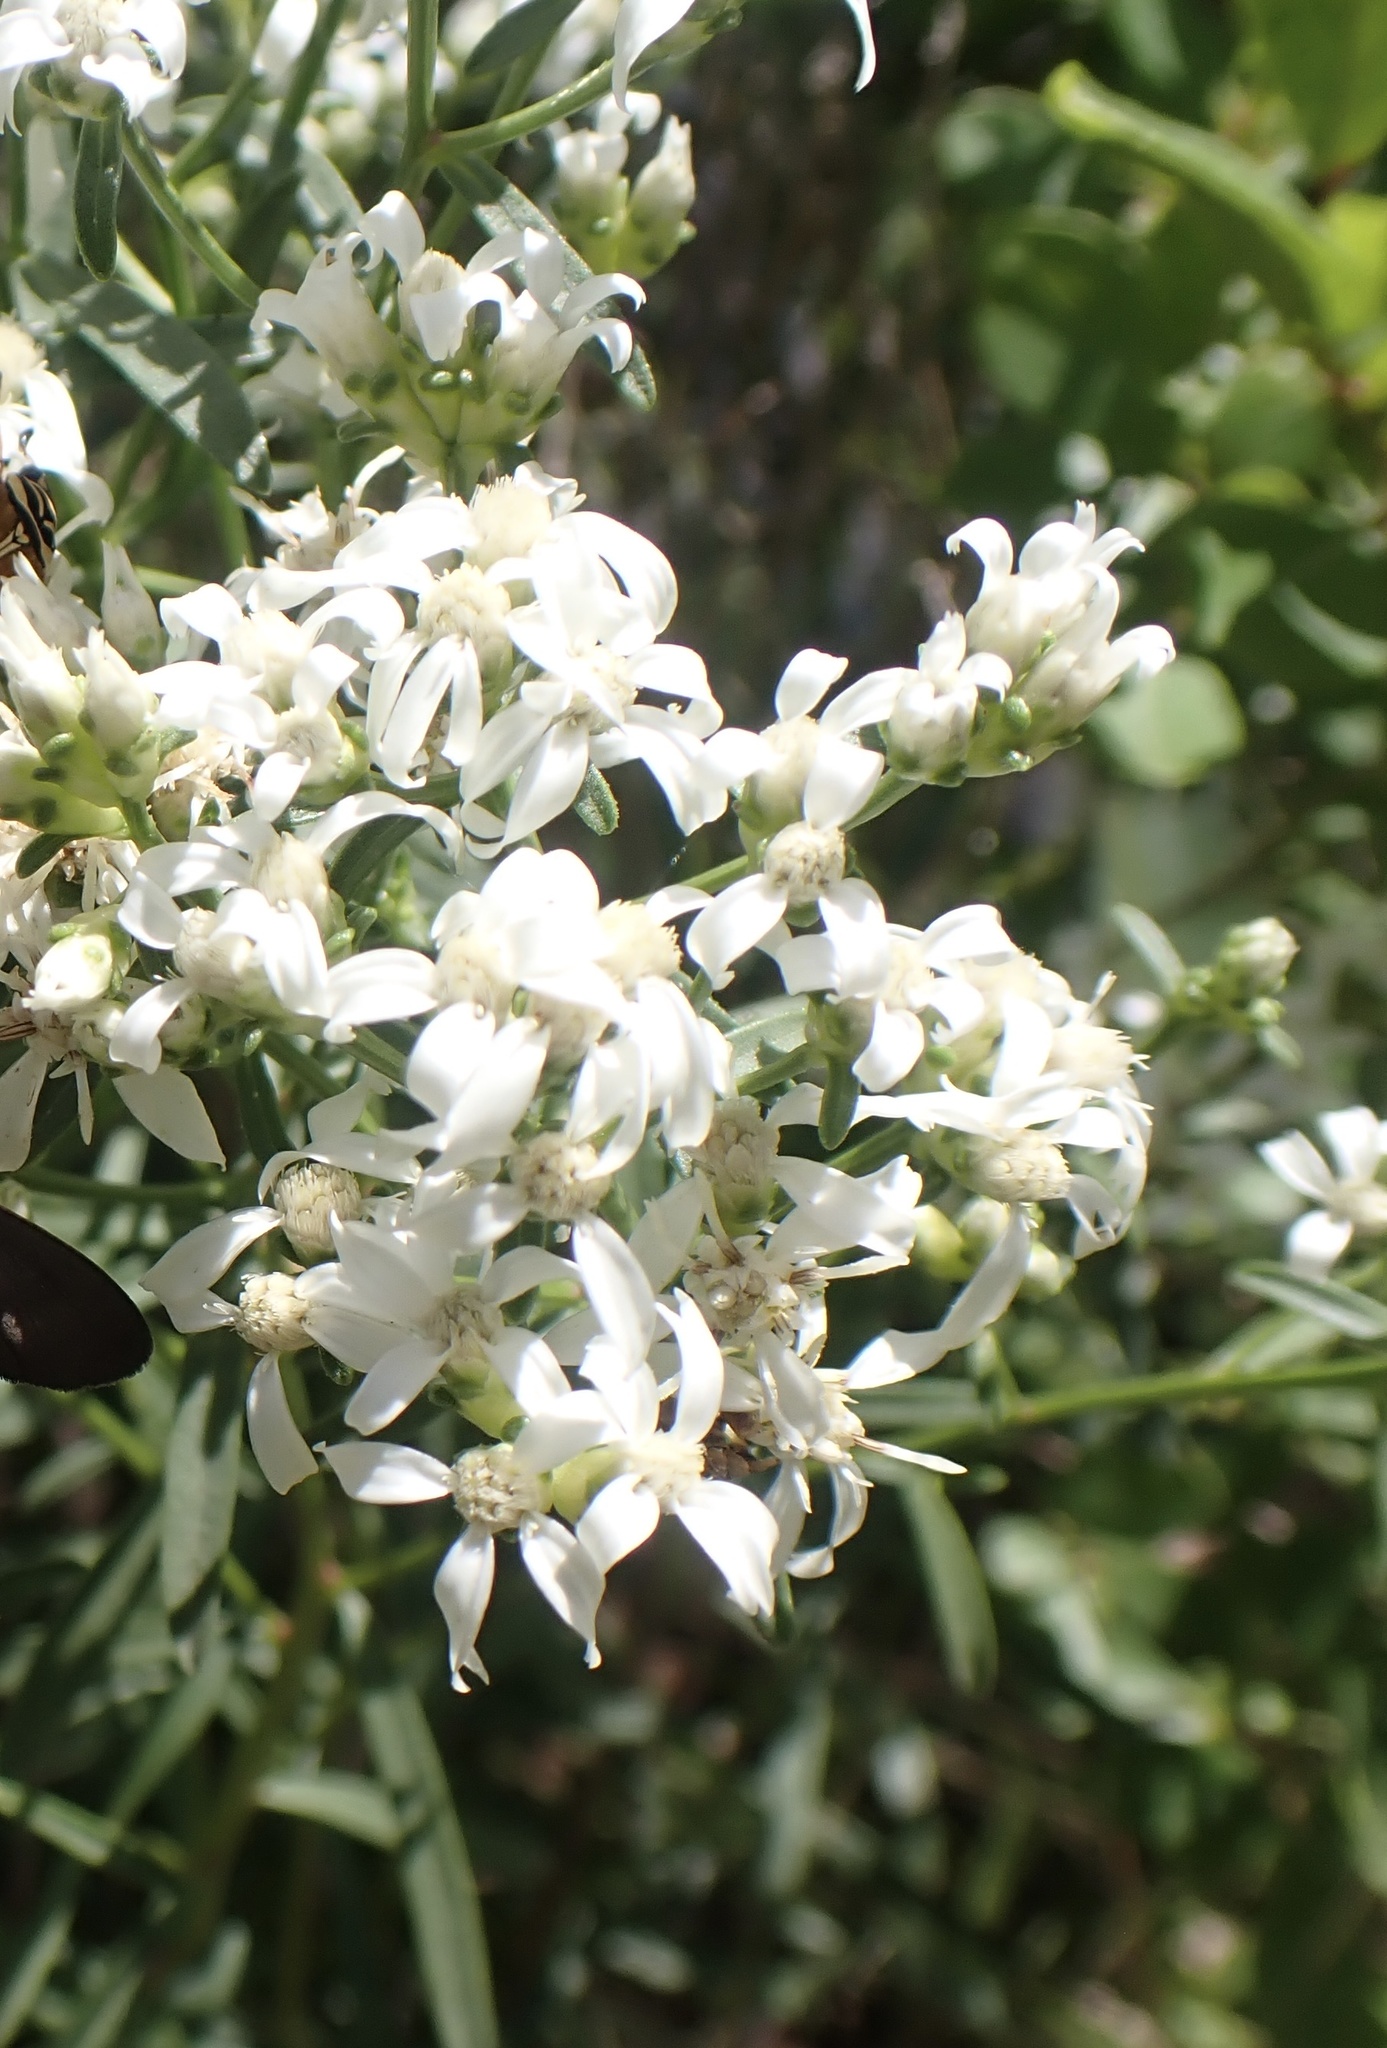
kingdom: Plantae
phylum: Tracheophyta
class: Magnoliopsida
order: Asterales
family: Asteraceae
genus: Sericocarpus
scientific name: Sericocarpus linifolius
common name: Narrow-leaf aster
